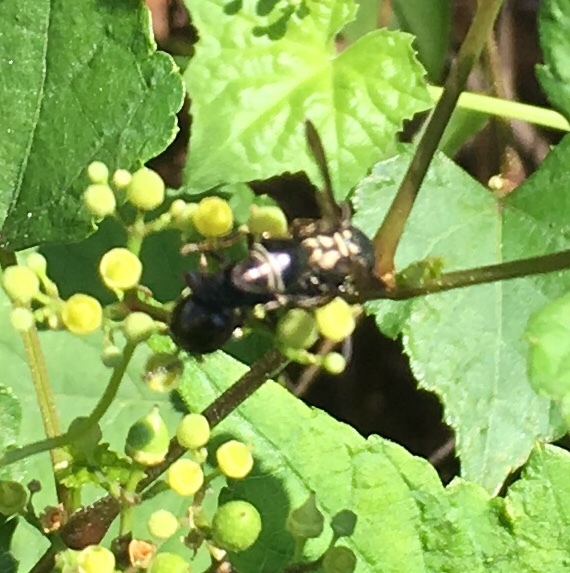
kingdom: Animalia
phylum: Arthropoda
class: Insecta
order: Hymenoptera
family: Eumenidae
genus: Zethus
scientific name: Zethus spinipes
